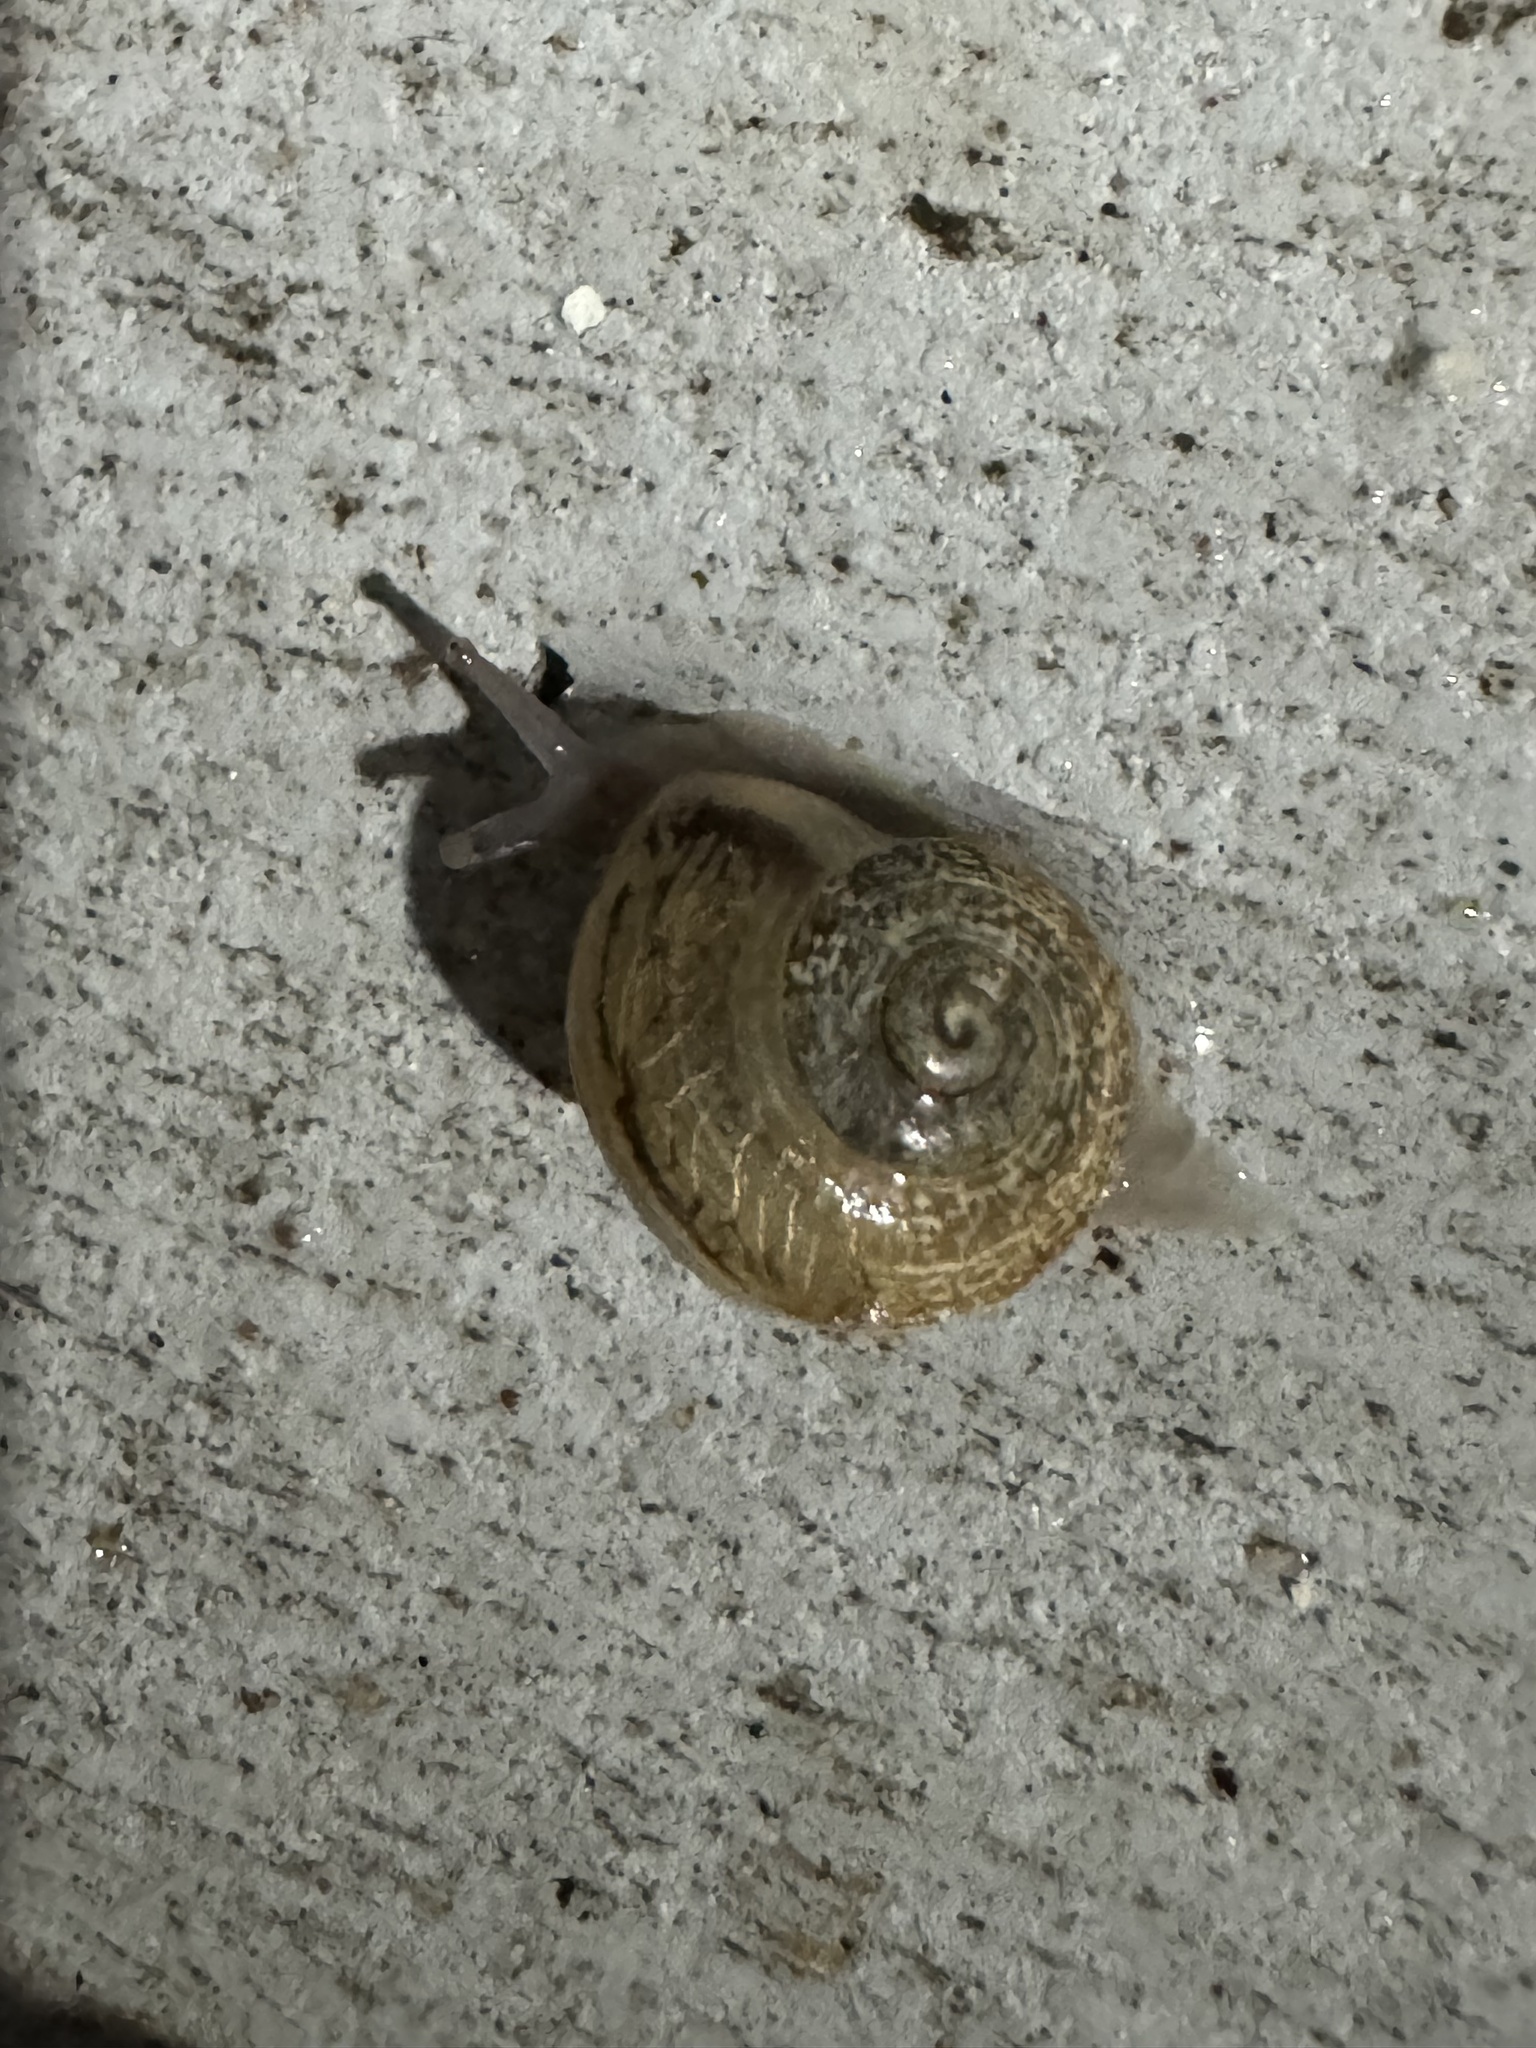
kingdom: Animalia
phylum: Mollusca
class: Gastropoda
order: Stylommatophora
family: Helicidae
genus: Otala
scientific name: Otala lactea
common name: Milk snail
